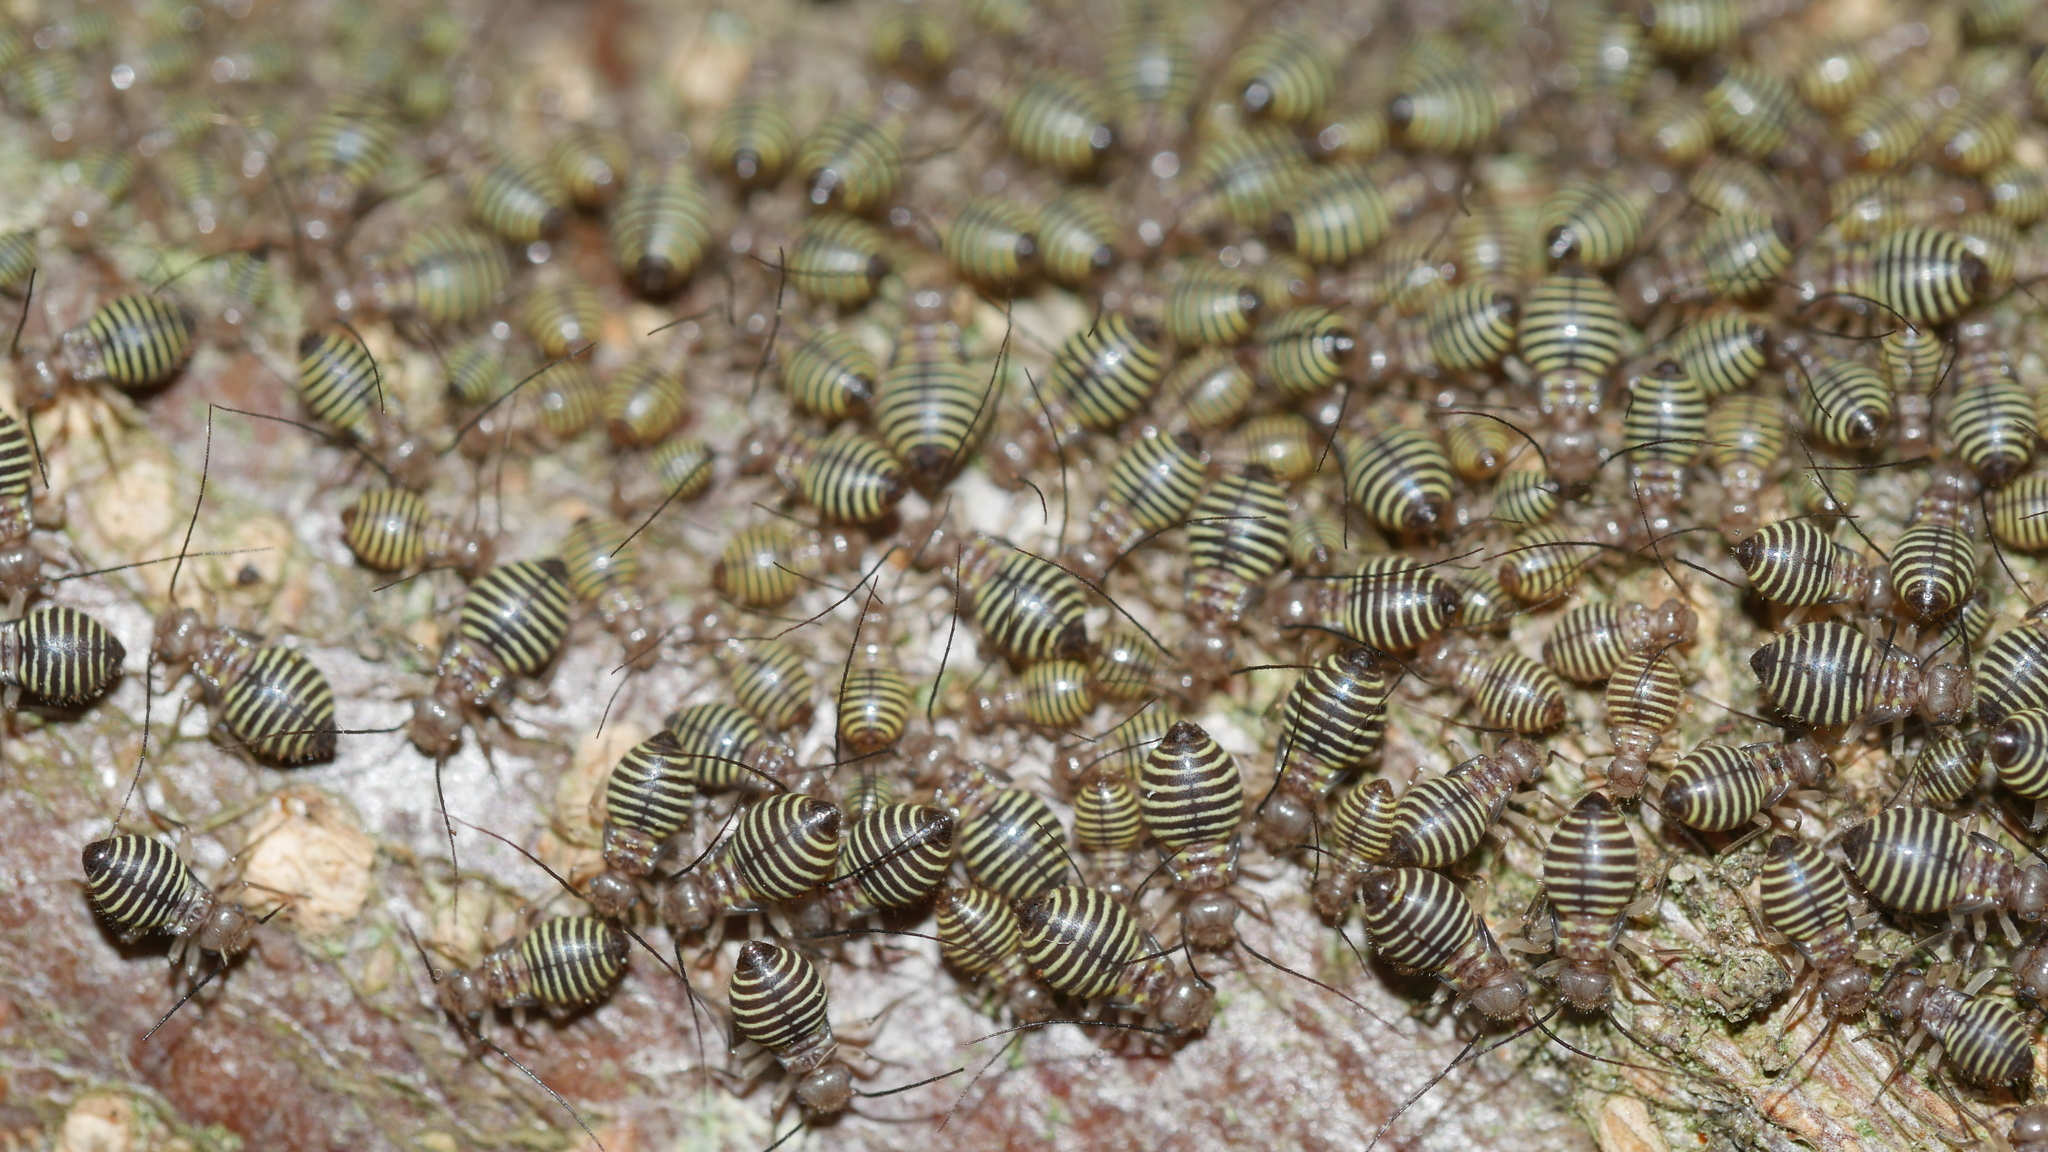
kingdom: Animalia
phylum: Arthropoda
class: Insecta
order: Psocodea
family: Psocidae
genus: Cerastipsocus
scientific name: Cerastipsocus venosus
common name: Tree cattle
